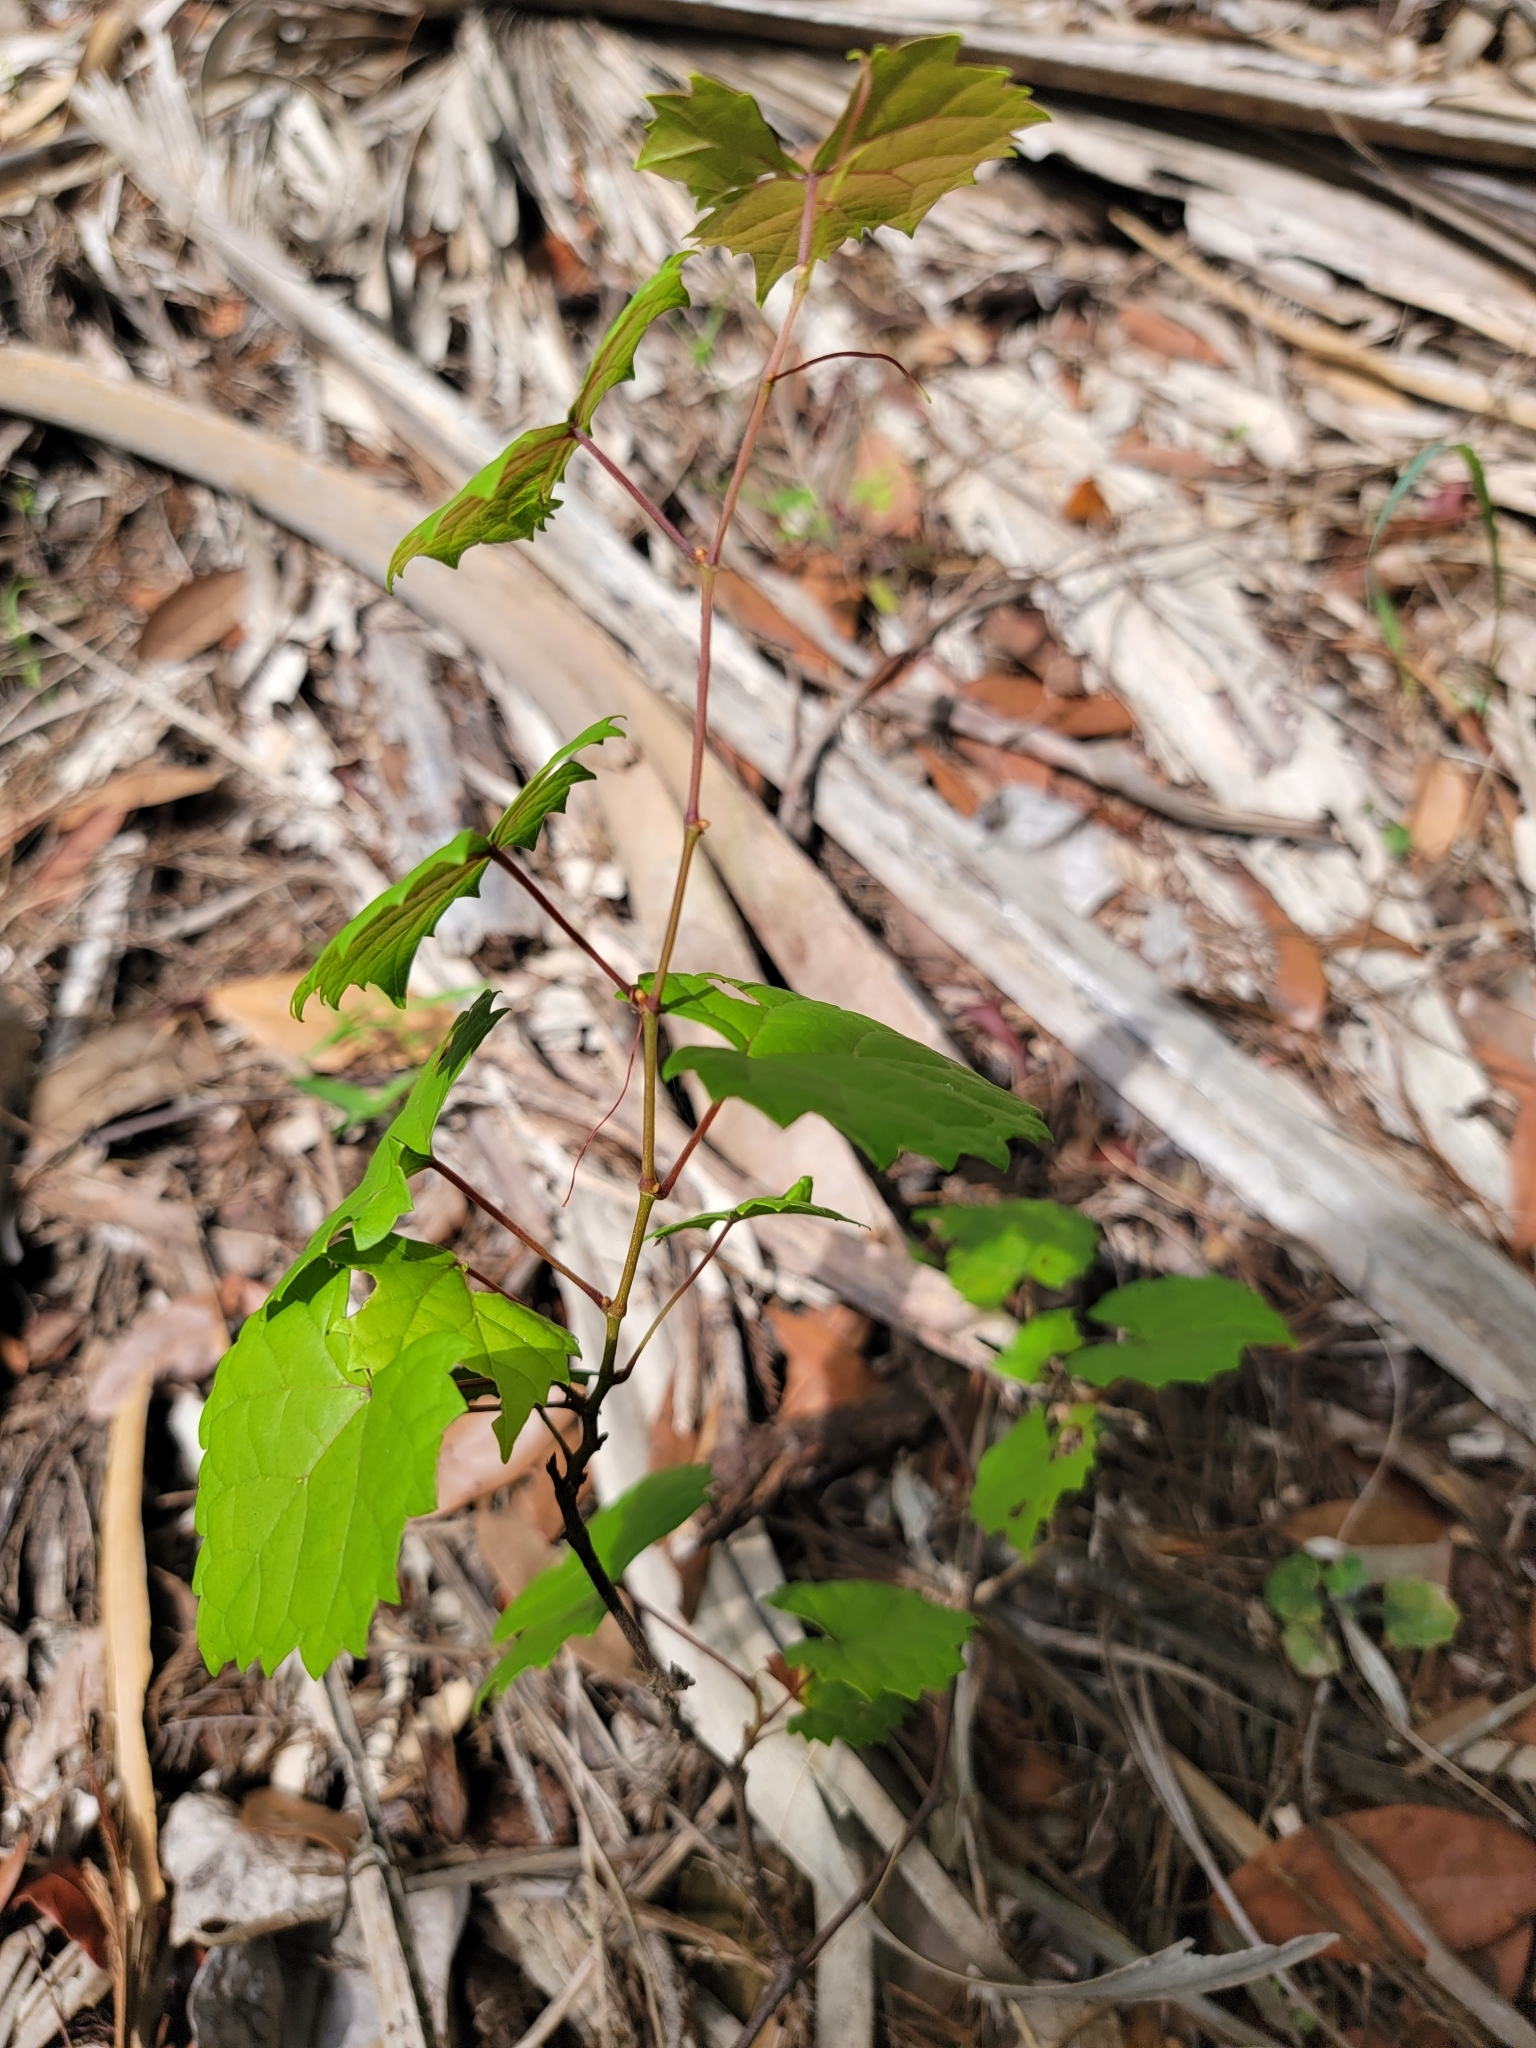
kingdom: Plantae
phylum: Tracheophyta
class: Magnoliopsida
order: Vitales
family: Vitaceae
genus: Vitis
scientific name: Vitis rotundifolia
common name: Muscadine grape
